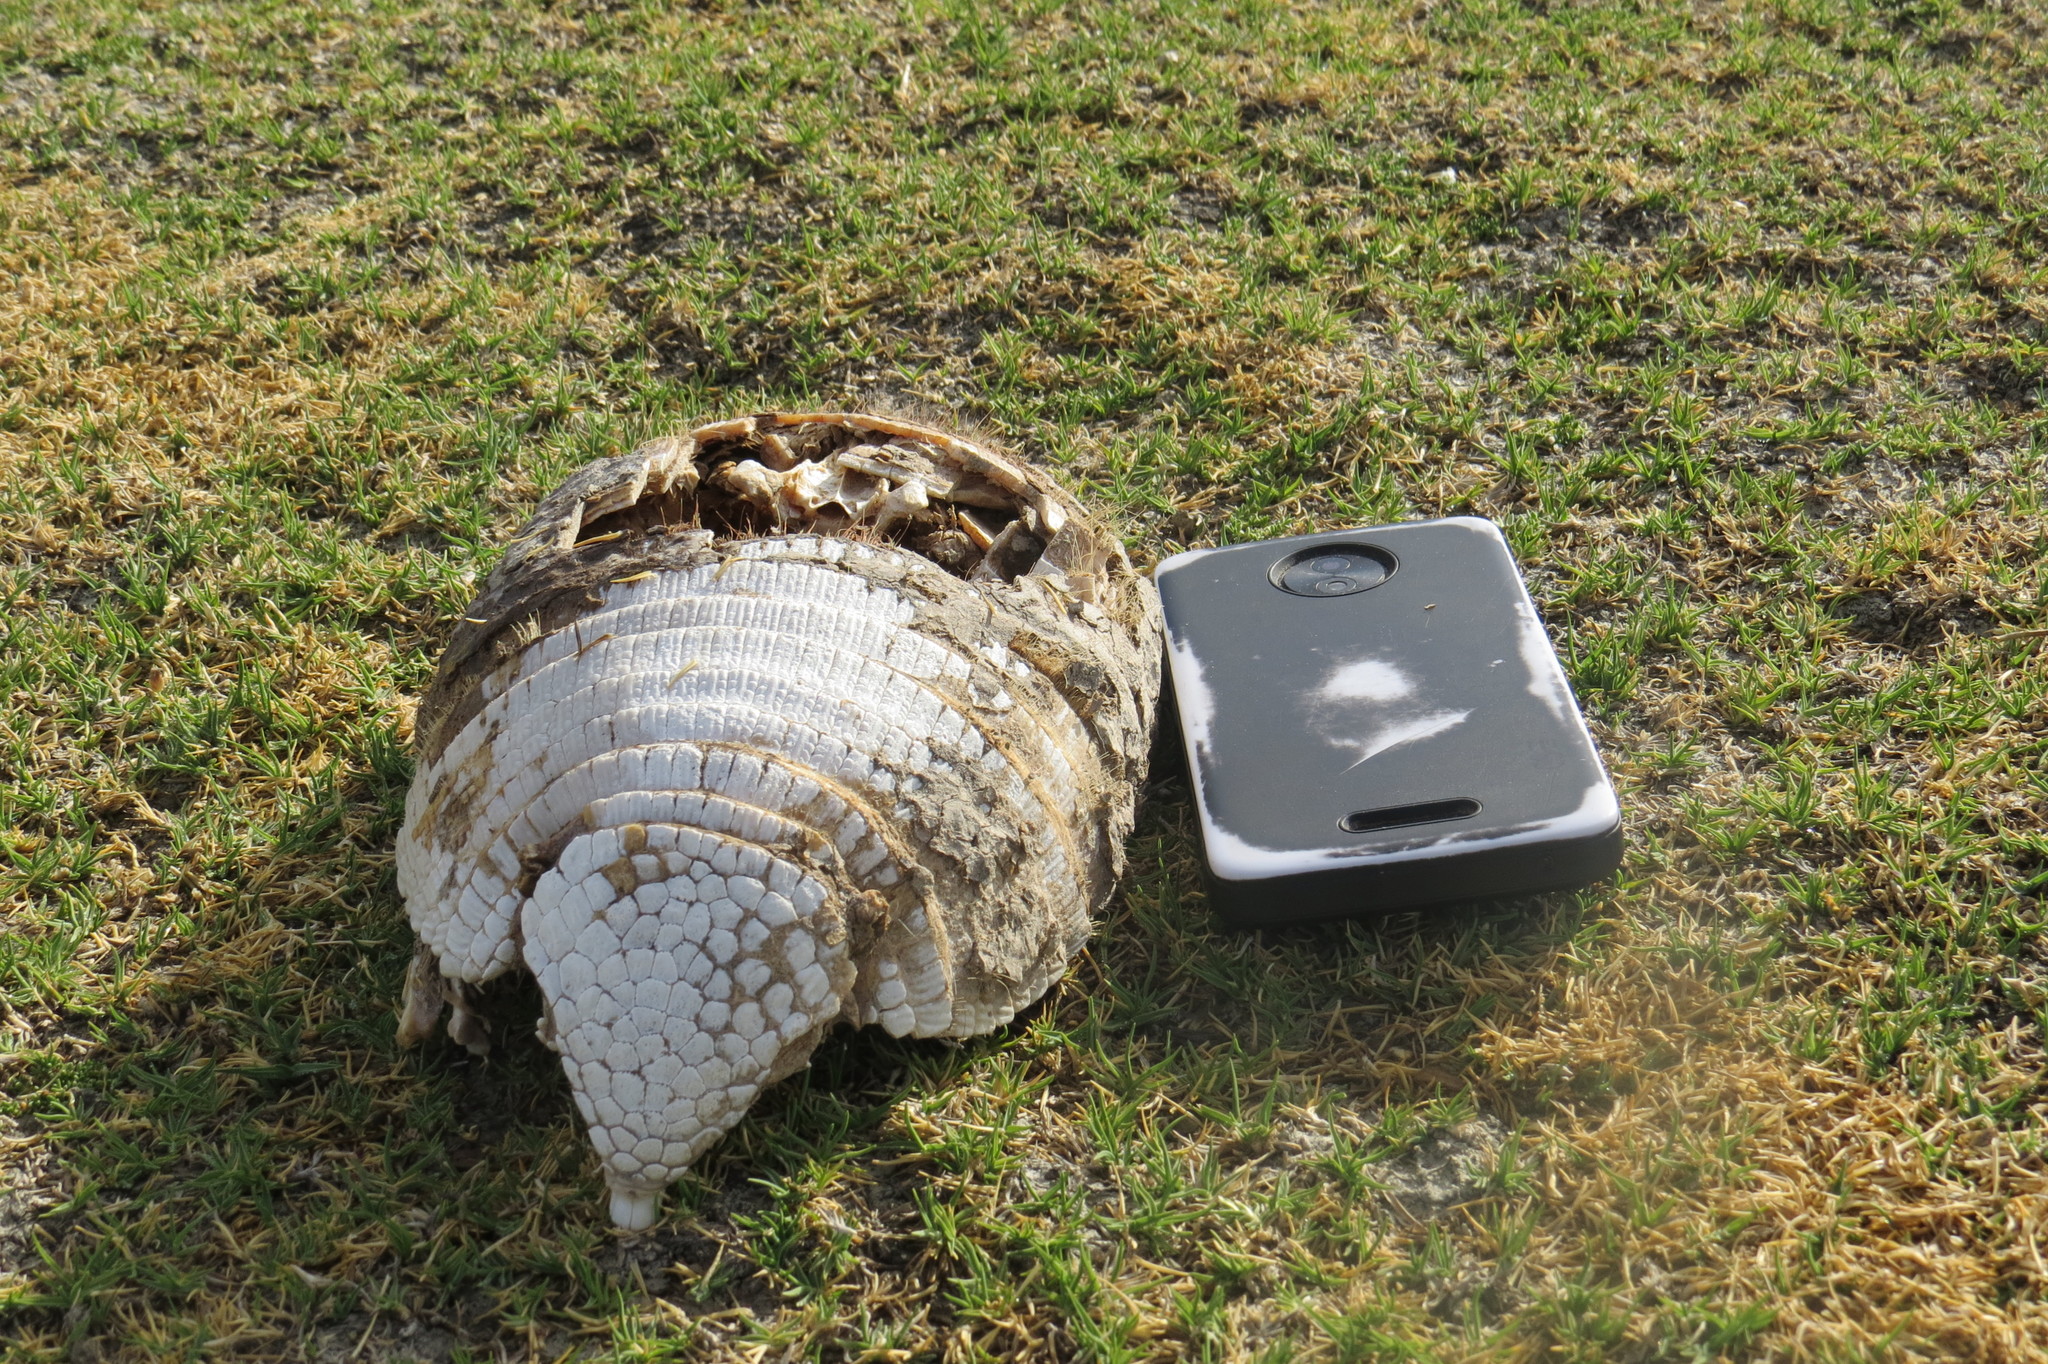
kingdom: Animalia
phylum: Chordata
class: Mammalia
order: Cingulata
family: Dasypodidae
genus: Chaetophractus
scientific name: Chaetophractus vellerosus
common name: Screaming hairy armadillo
